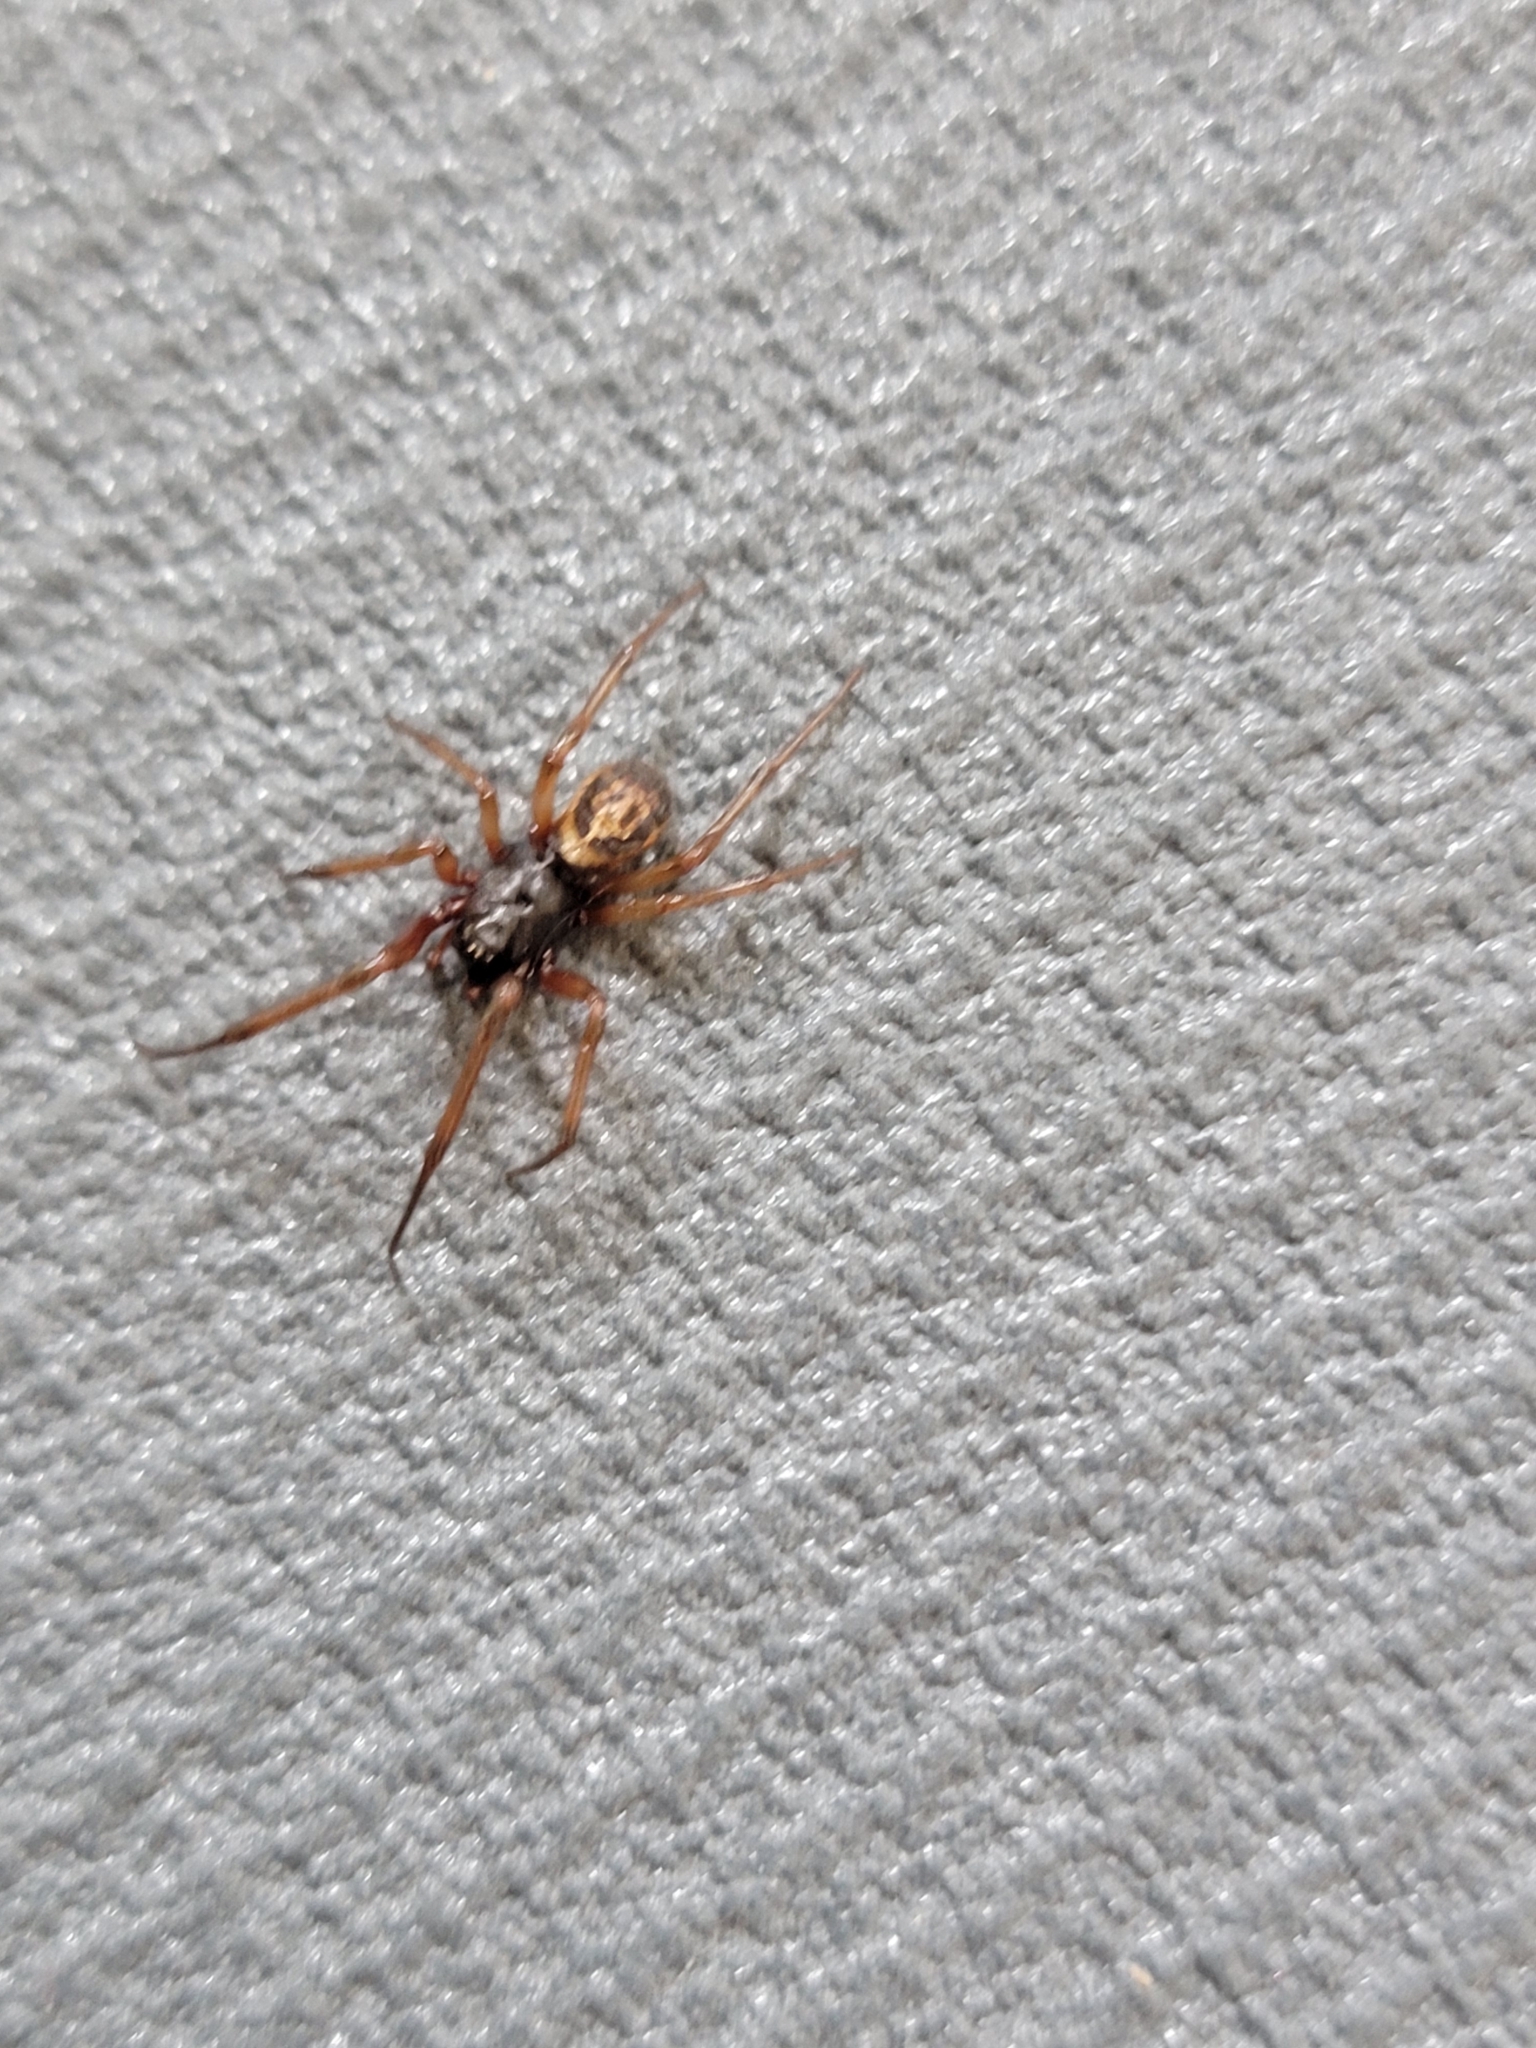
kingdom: Animalia
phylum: Arthropoda
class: Arachnida
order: Araneae
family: Theridiidae
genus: Steatoda
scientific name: Steatoda nobilis
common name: Cobweb weaver
